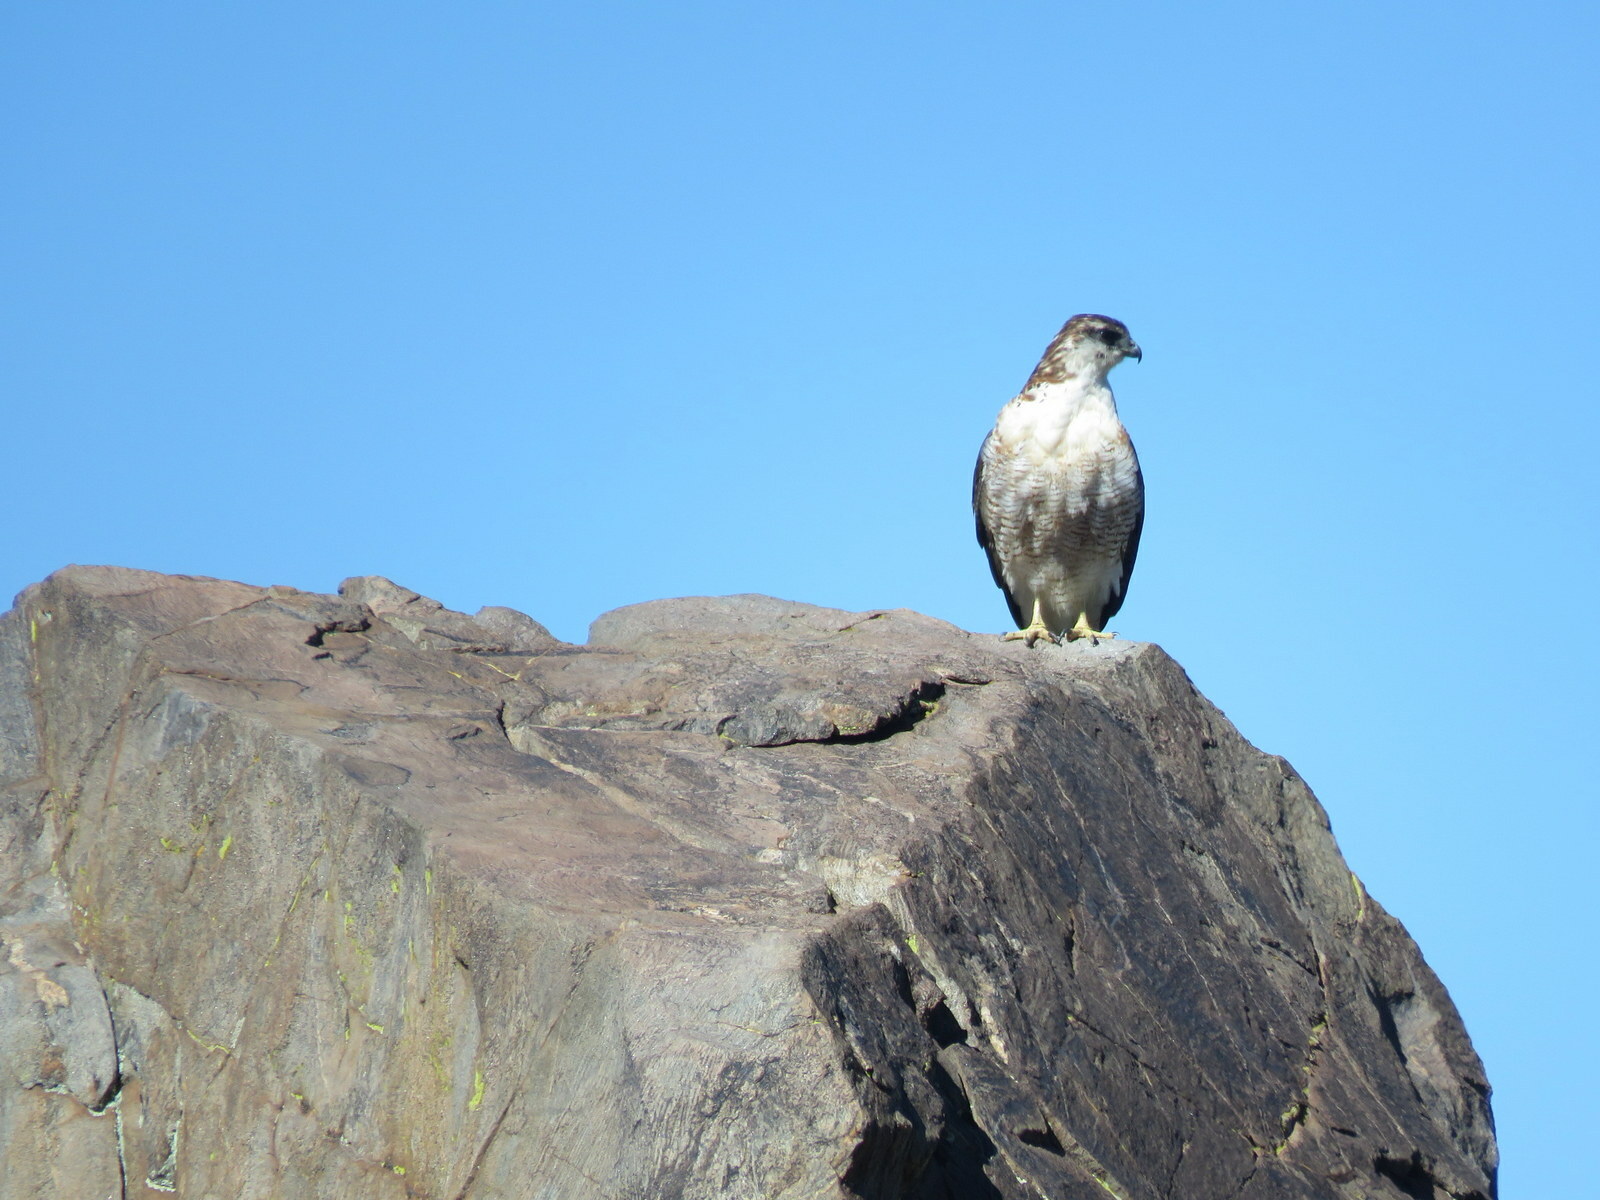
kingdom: Animalia
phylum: Chordata
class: Aves
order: Accipitriformes
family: Accipitridae
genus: Buteo
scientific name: Buteo polyosoma
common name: Variable hawk
